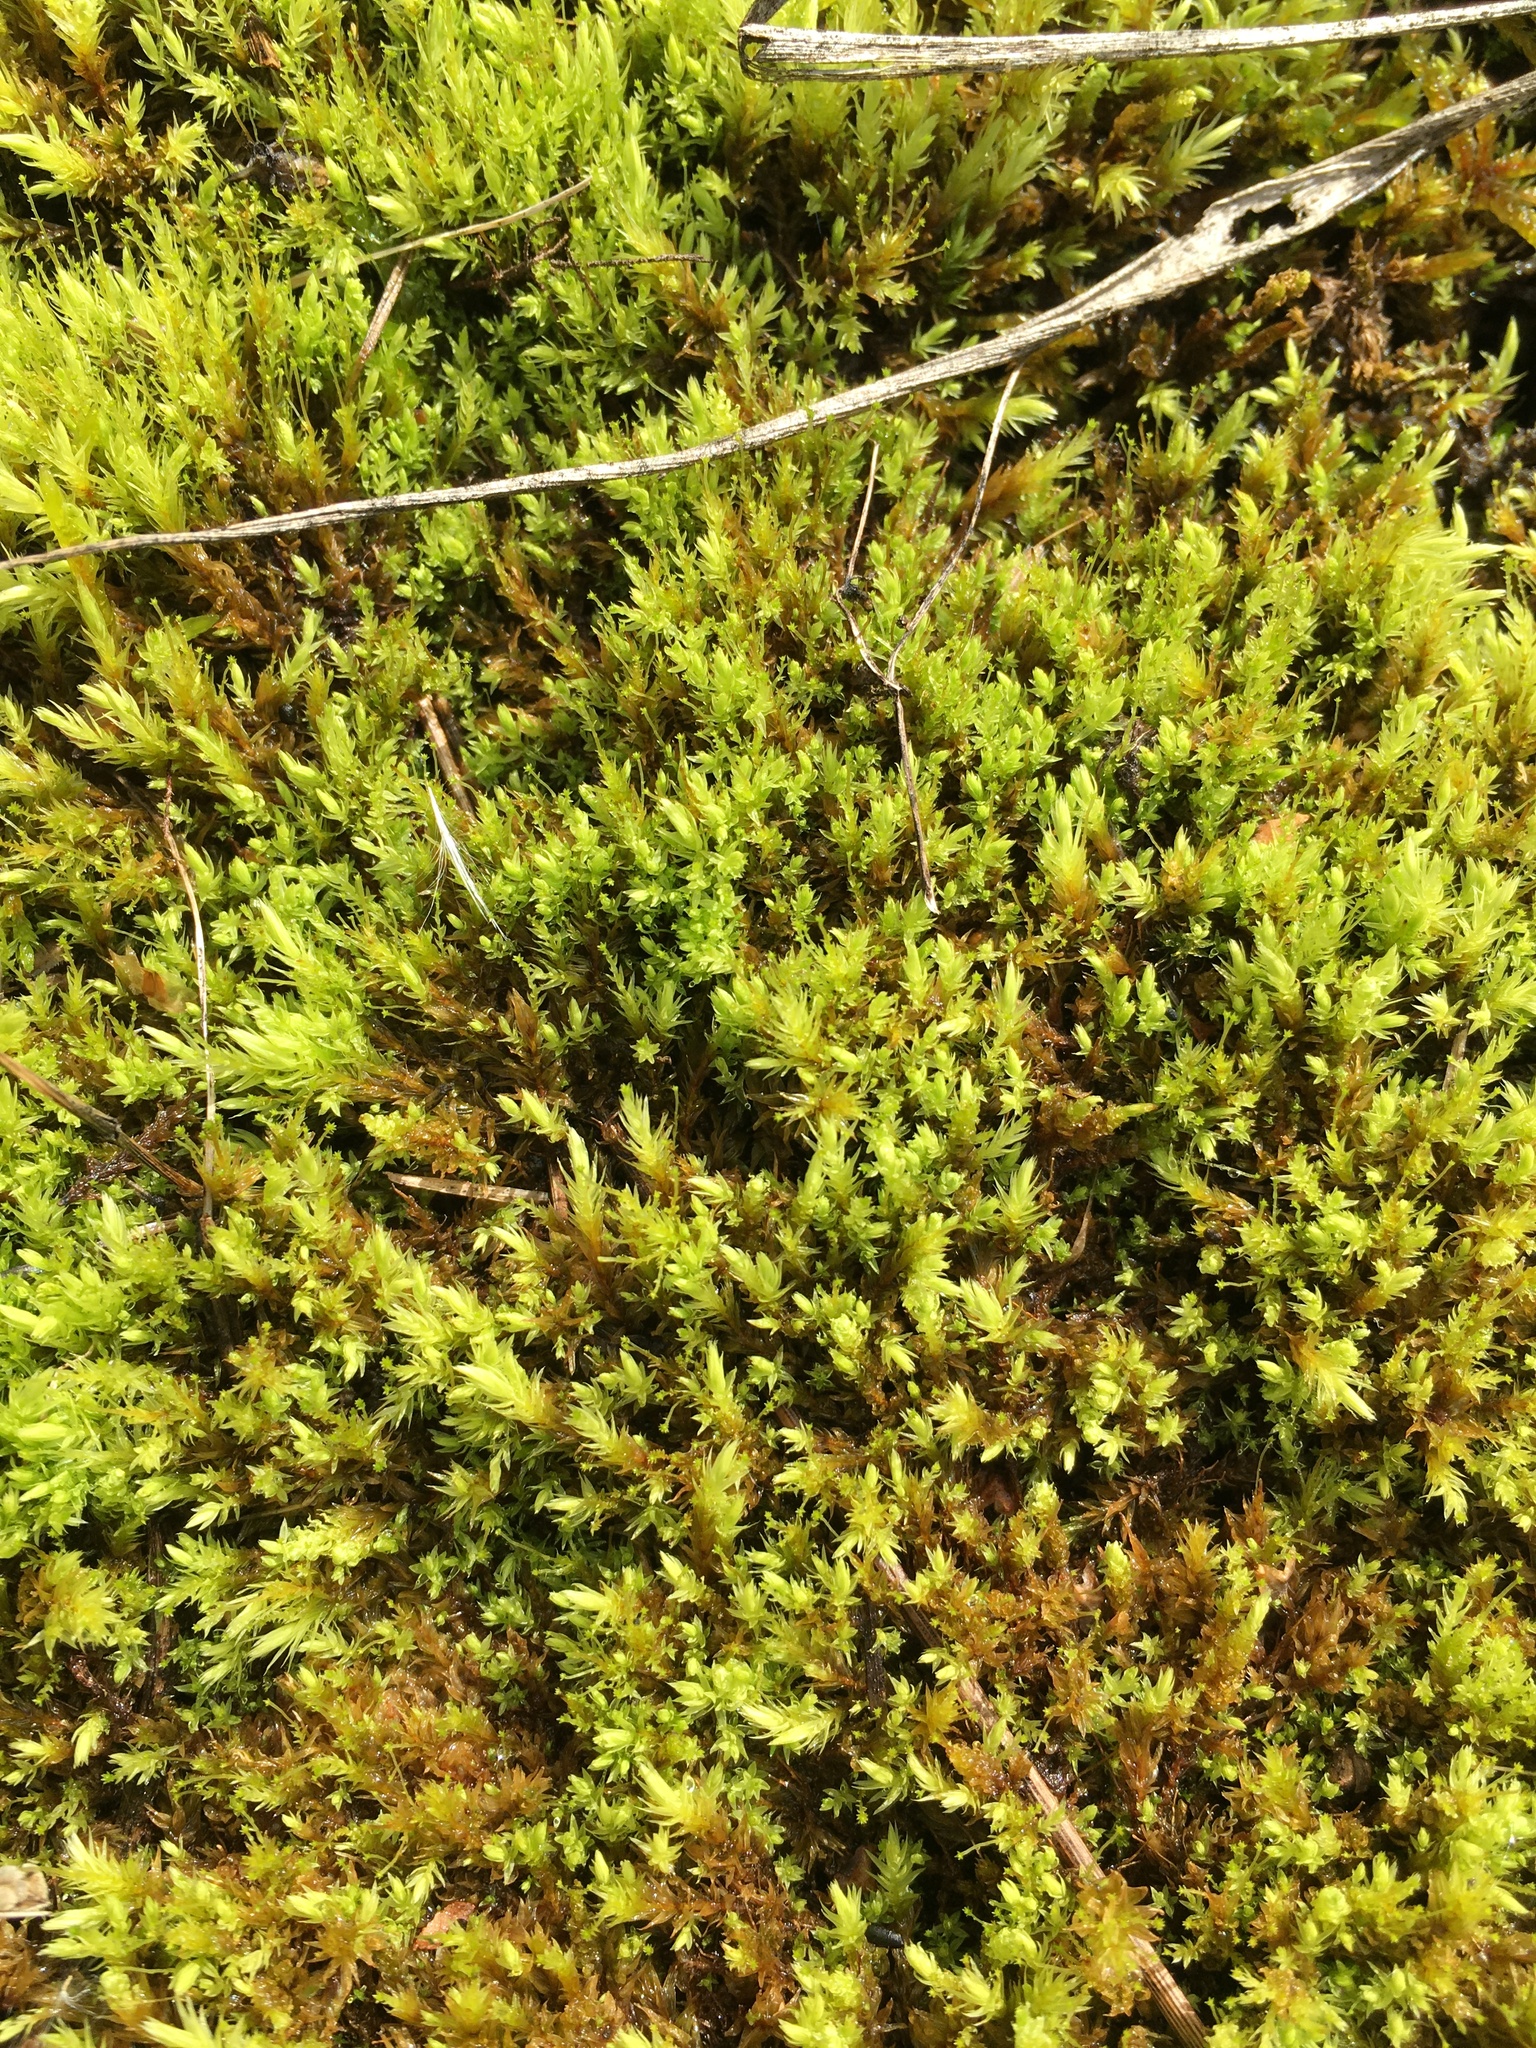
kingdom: Plantae
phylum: Bryophyta
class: Bryopsida
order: Aulacomniales
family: Aulacomniaceae
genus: Aulacomnium
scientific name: Aulacomnium palustre
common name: Bog groove-moss
